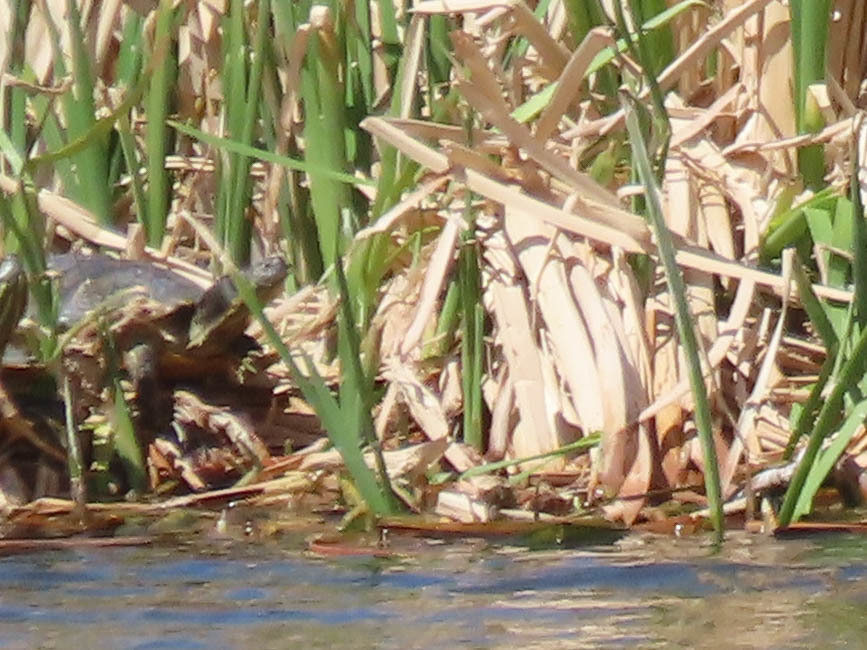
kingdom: Animalia
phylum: Chordata
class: Testudines
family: Emydidae
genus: Trachemys
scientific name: Trachemys scripta
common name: Slider
